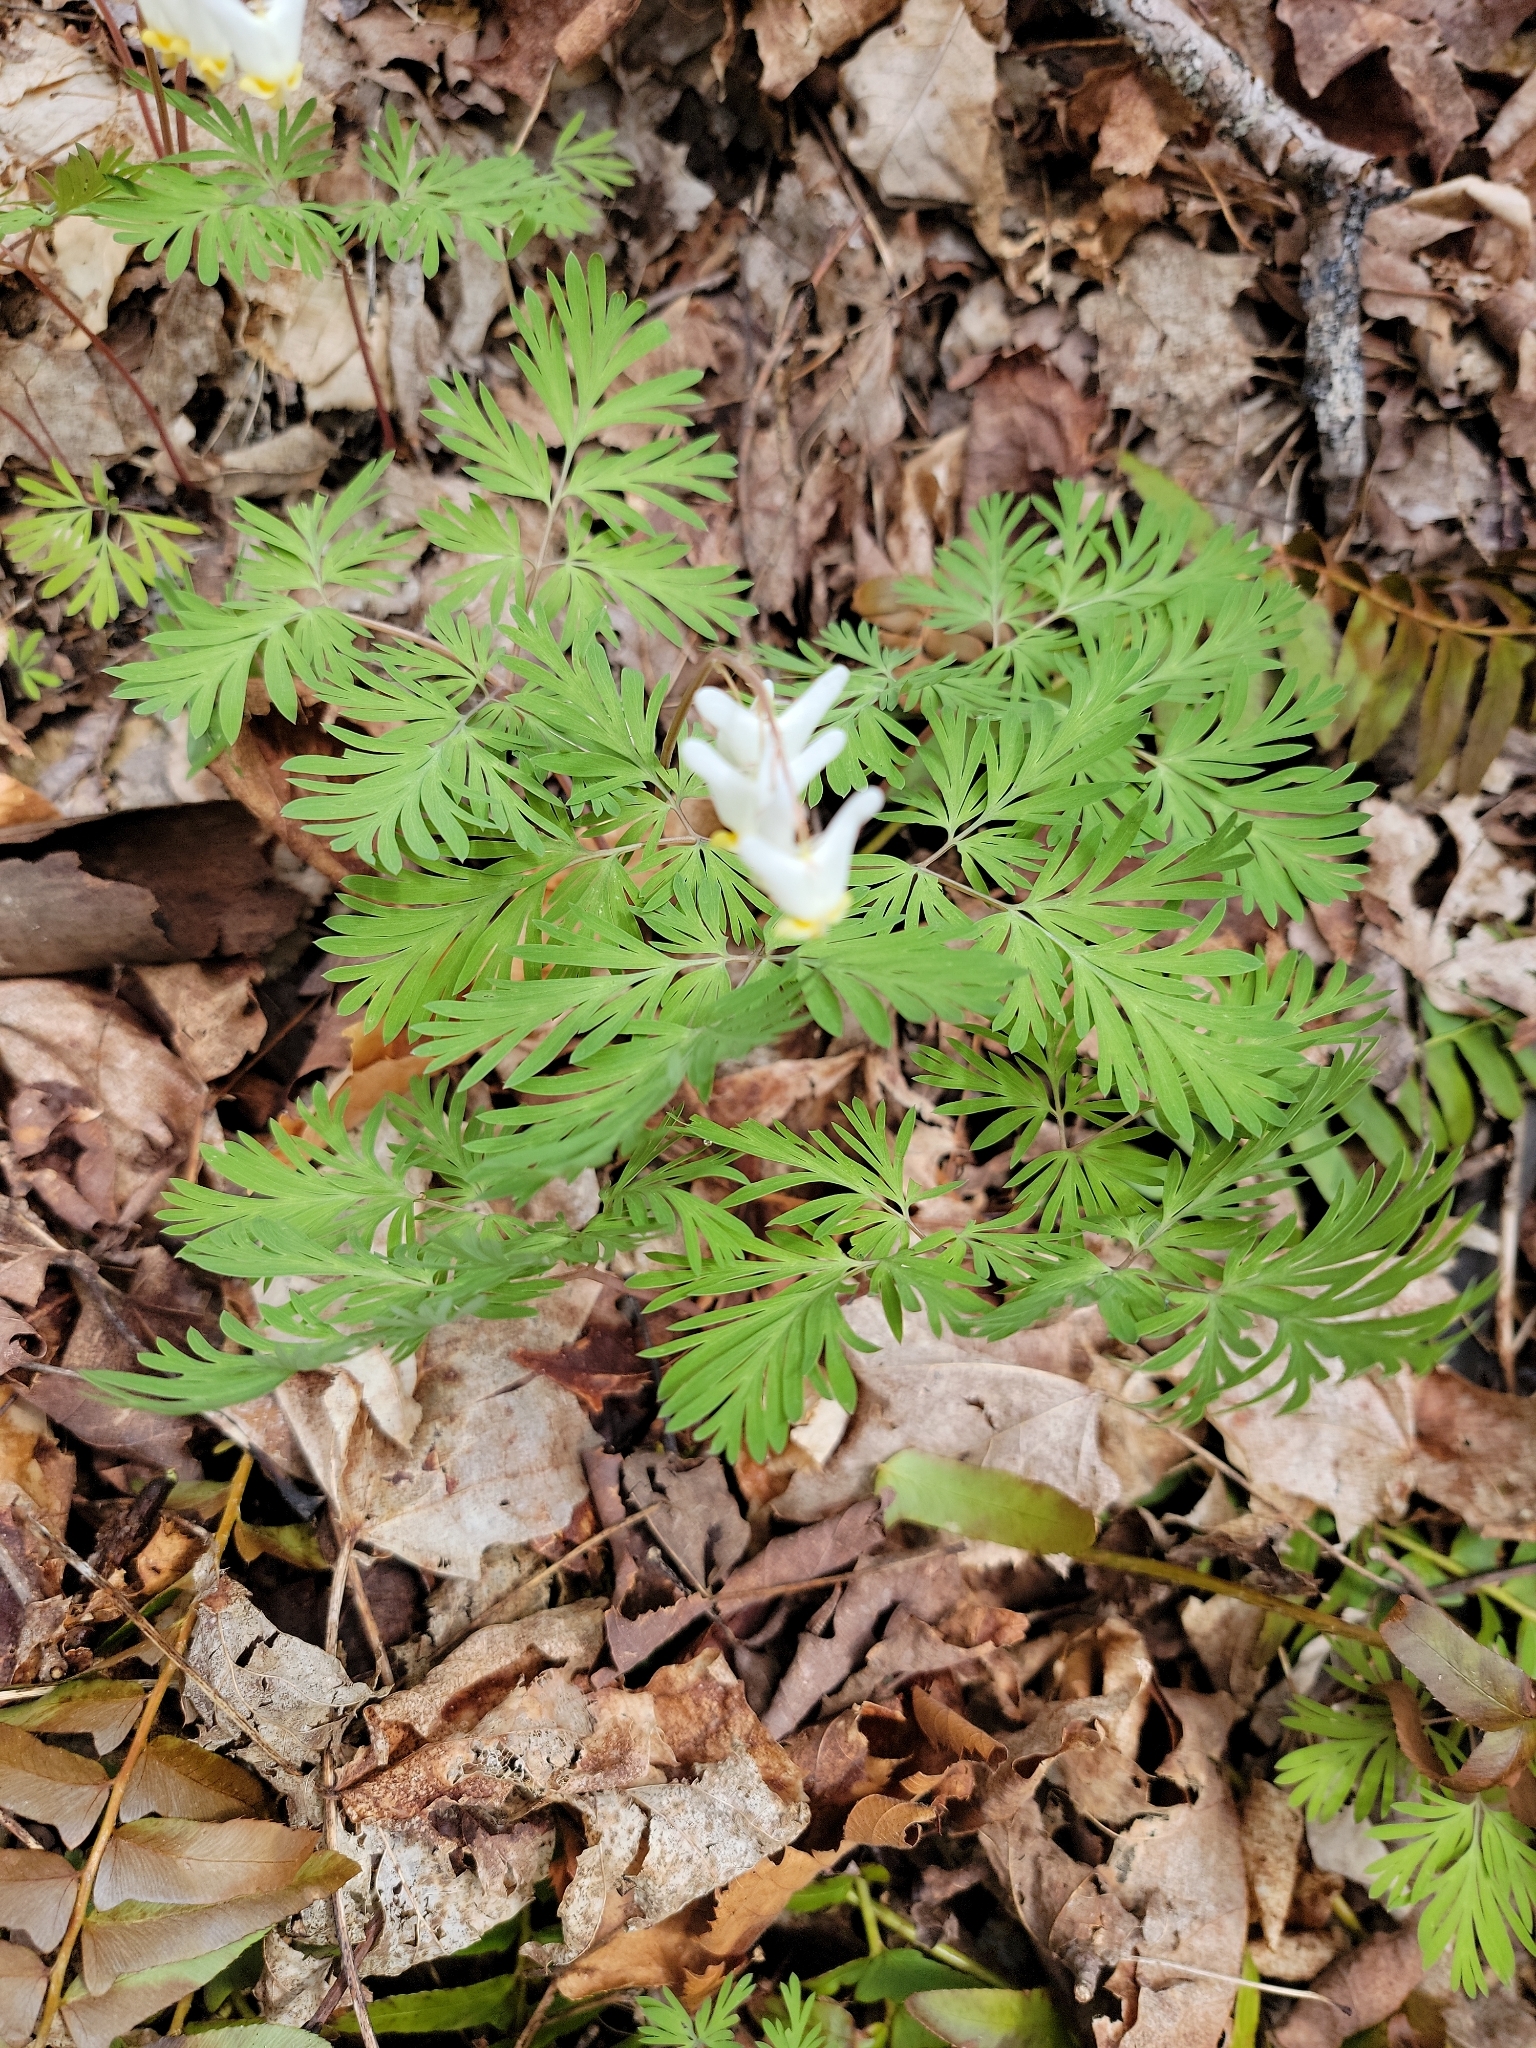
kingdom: Plantae
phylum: Tracheophyta
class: Magnoliopsida
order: Ranunculales
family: Papaveraceae
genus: Dicentra
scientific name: Dicentra cucullaria
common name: Dutchman's breeches
